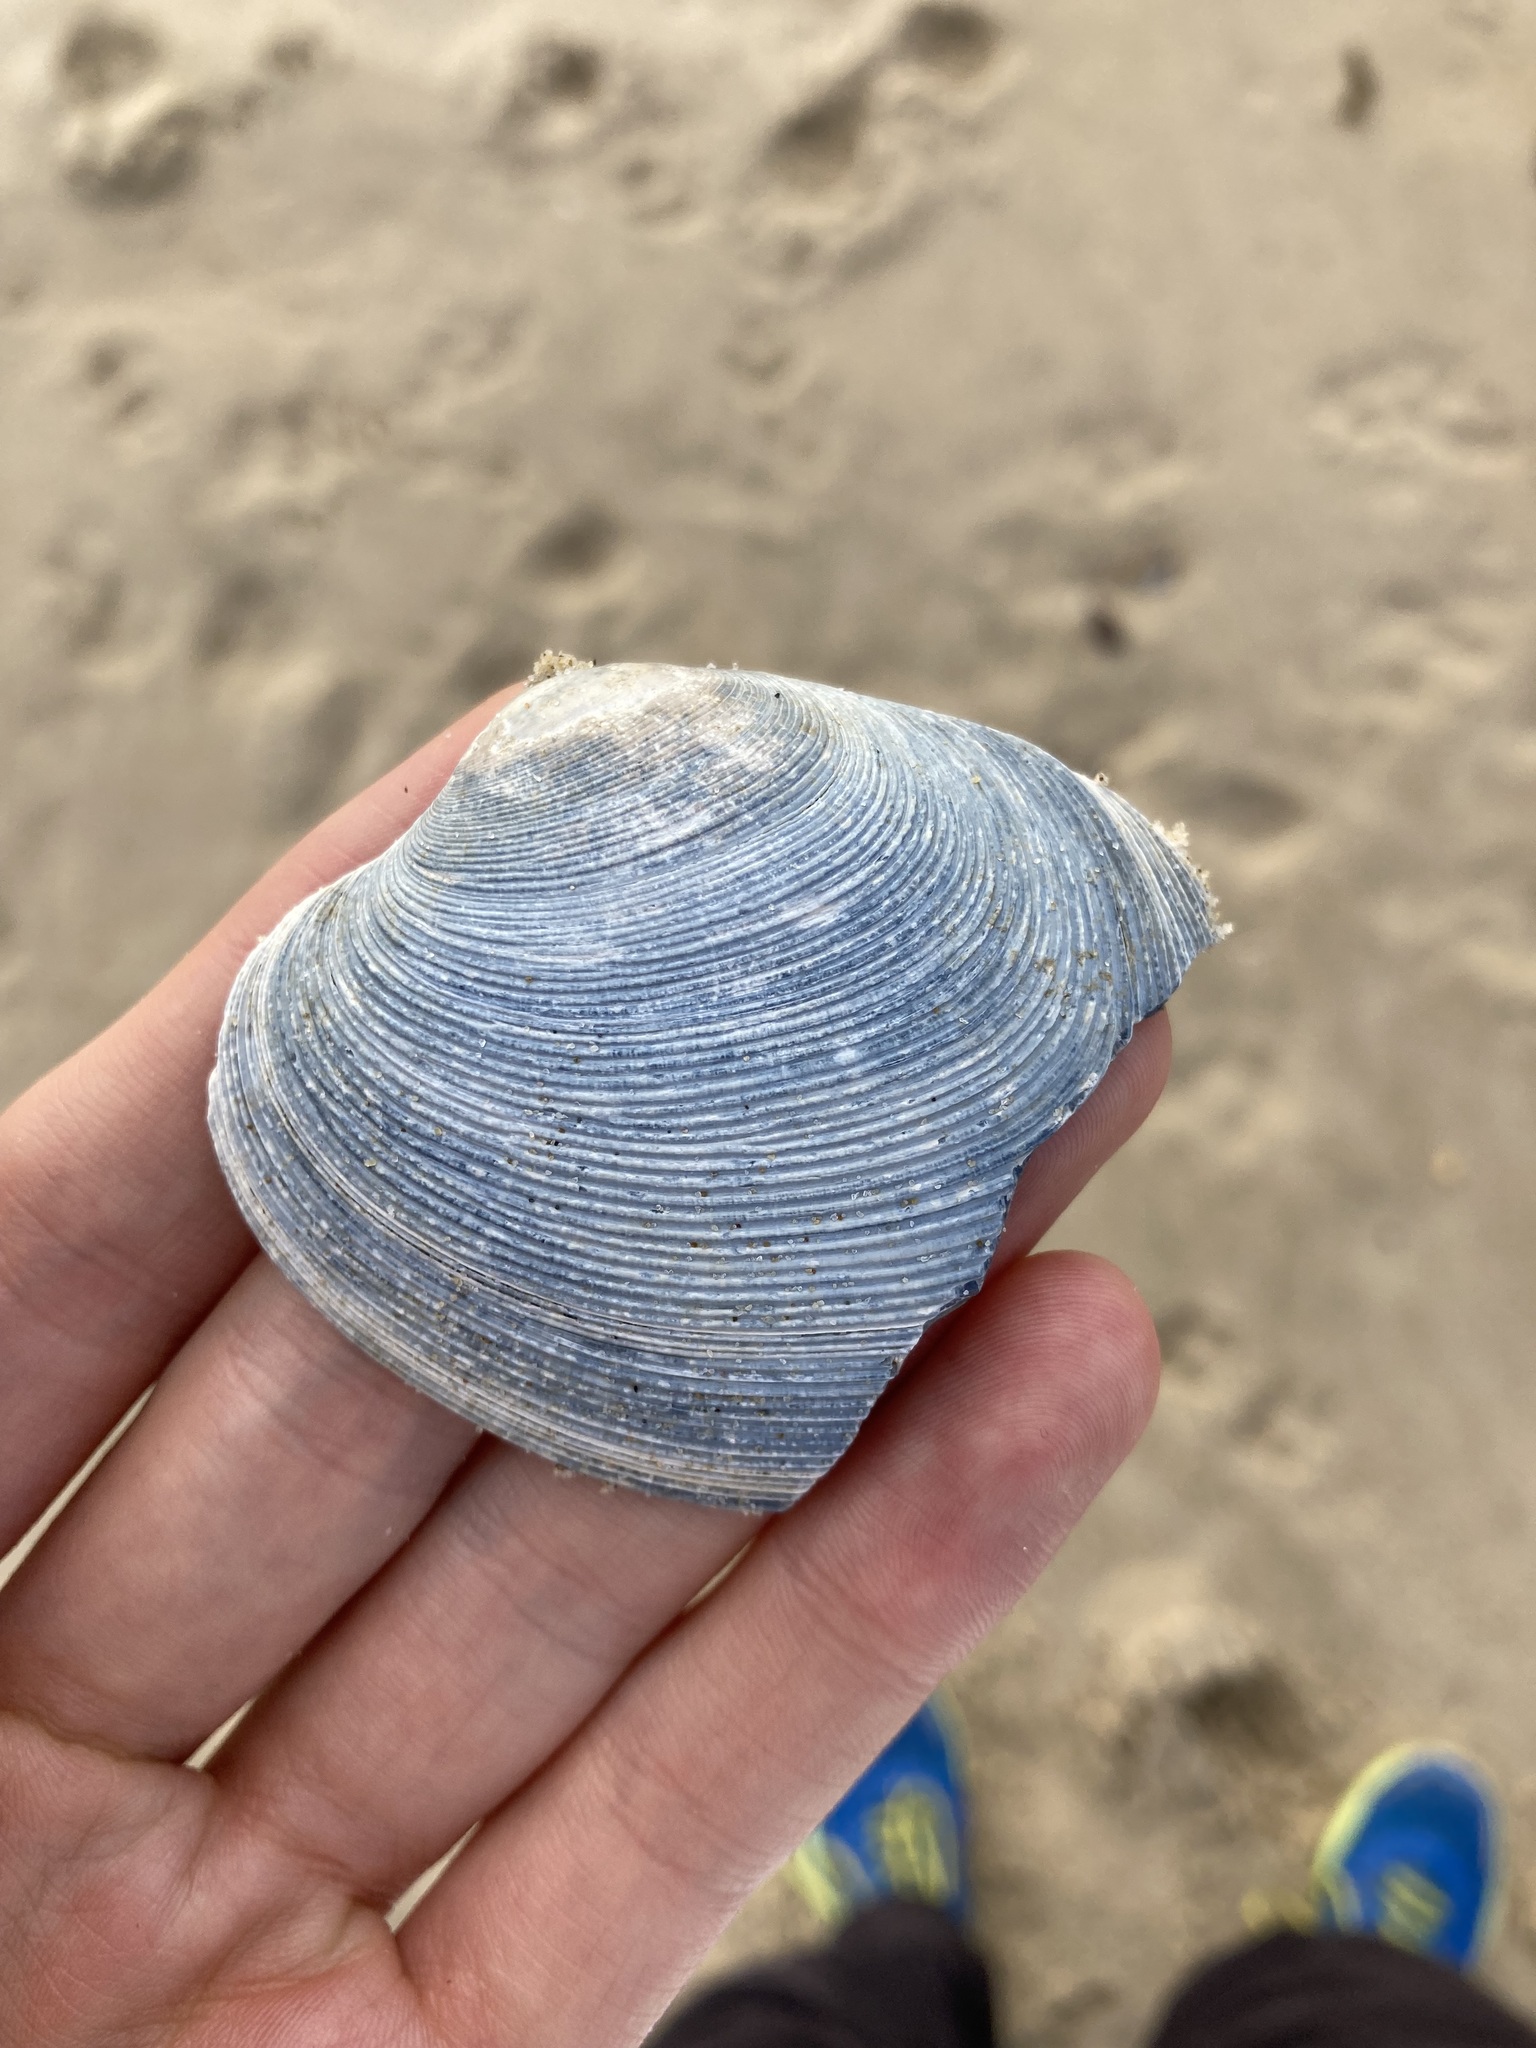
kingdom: Animalia
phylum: Mollusca
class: Bivalvia
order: Venerida
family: Veneridae
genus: Tapes
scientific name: Tapes conspersus
